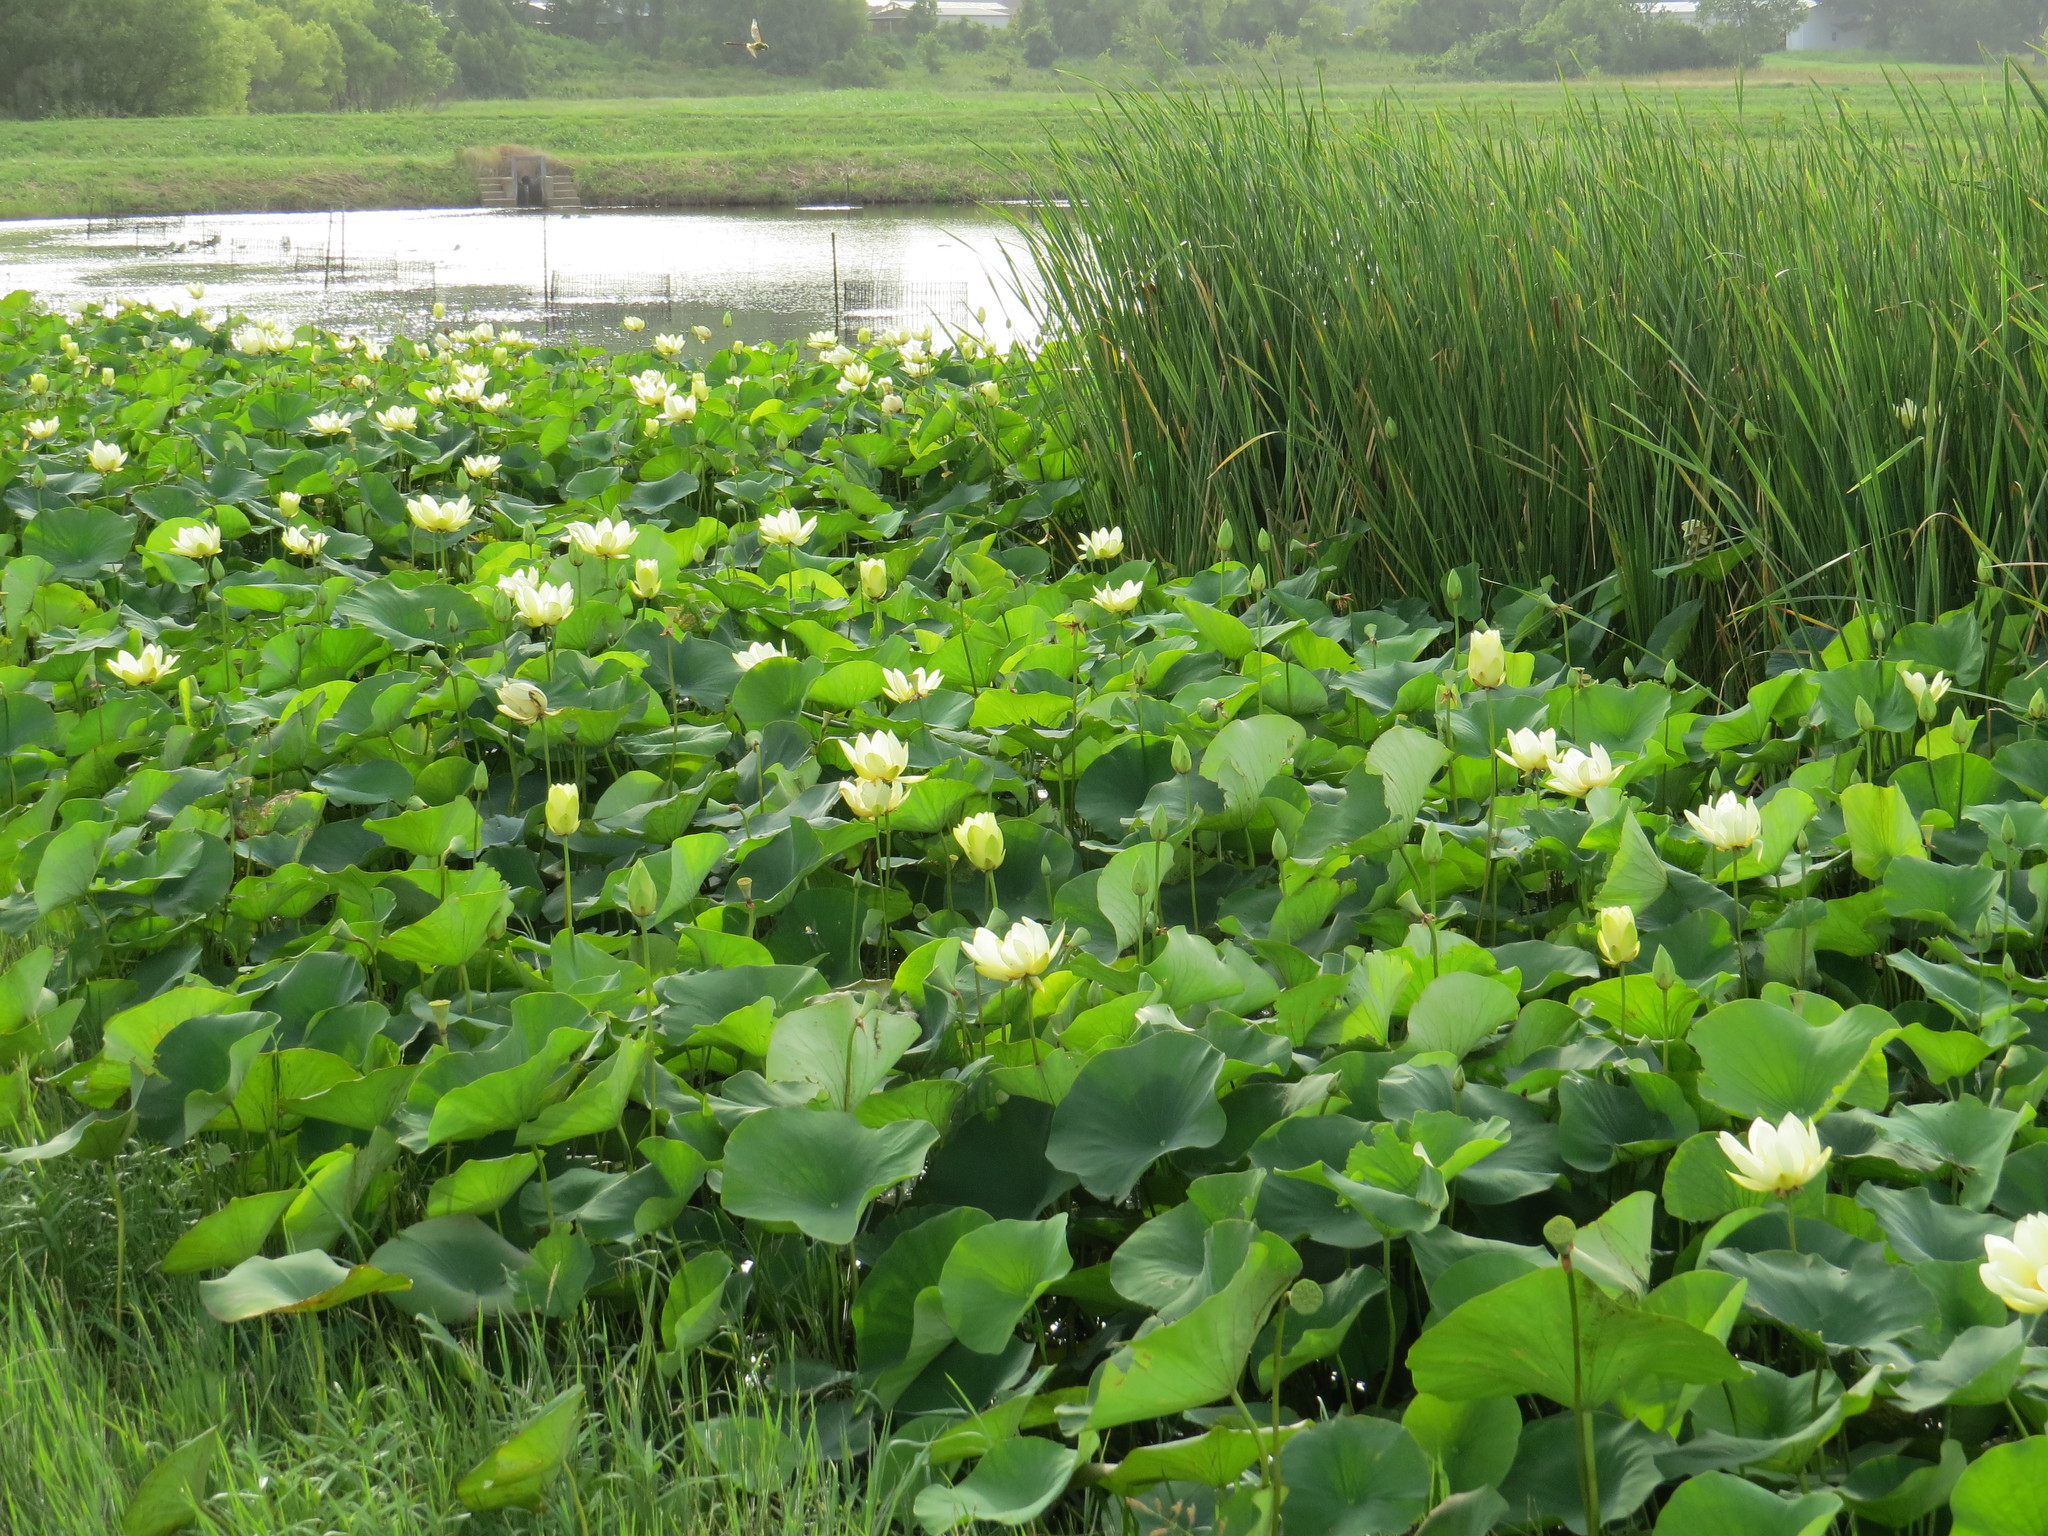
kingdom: Plantae
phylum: Tracheophyta
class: Magnoliopsida
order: Proteales
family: Nelumbonaceae
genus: Nelumbo
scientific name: Nelumbo lutea
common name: American lotus
